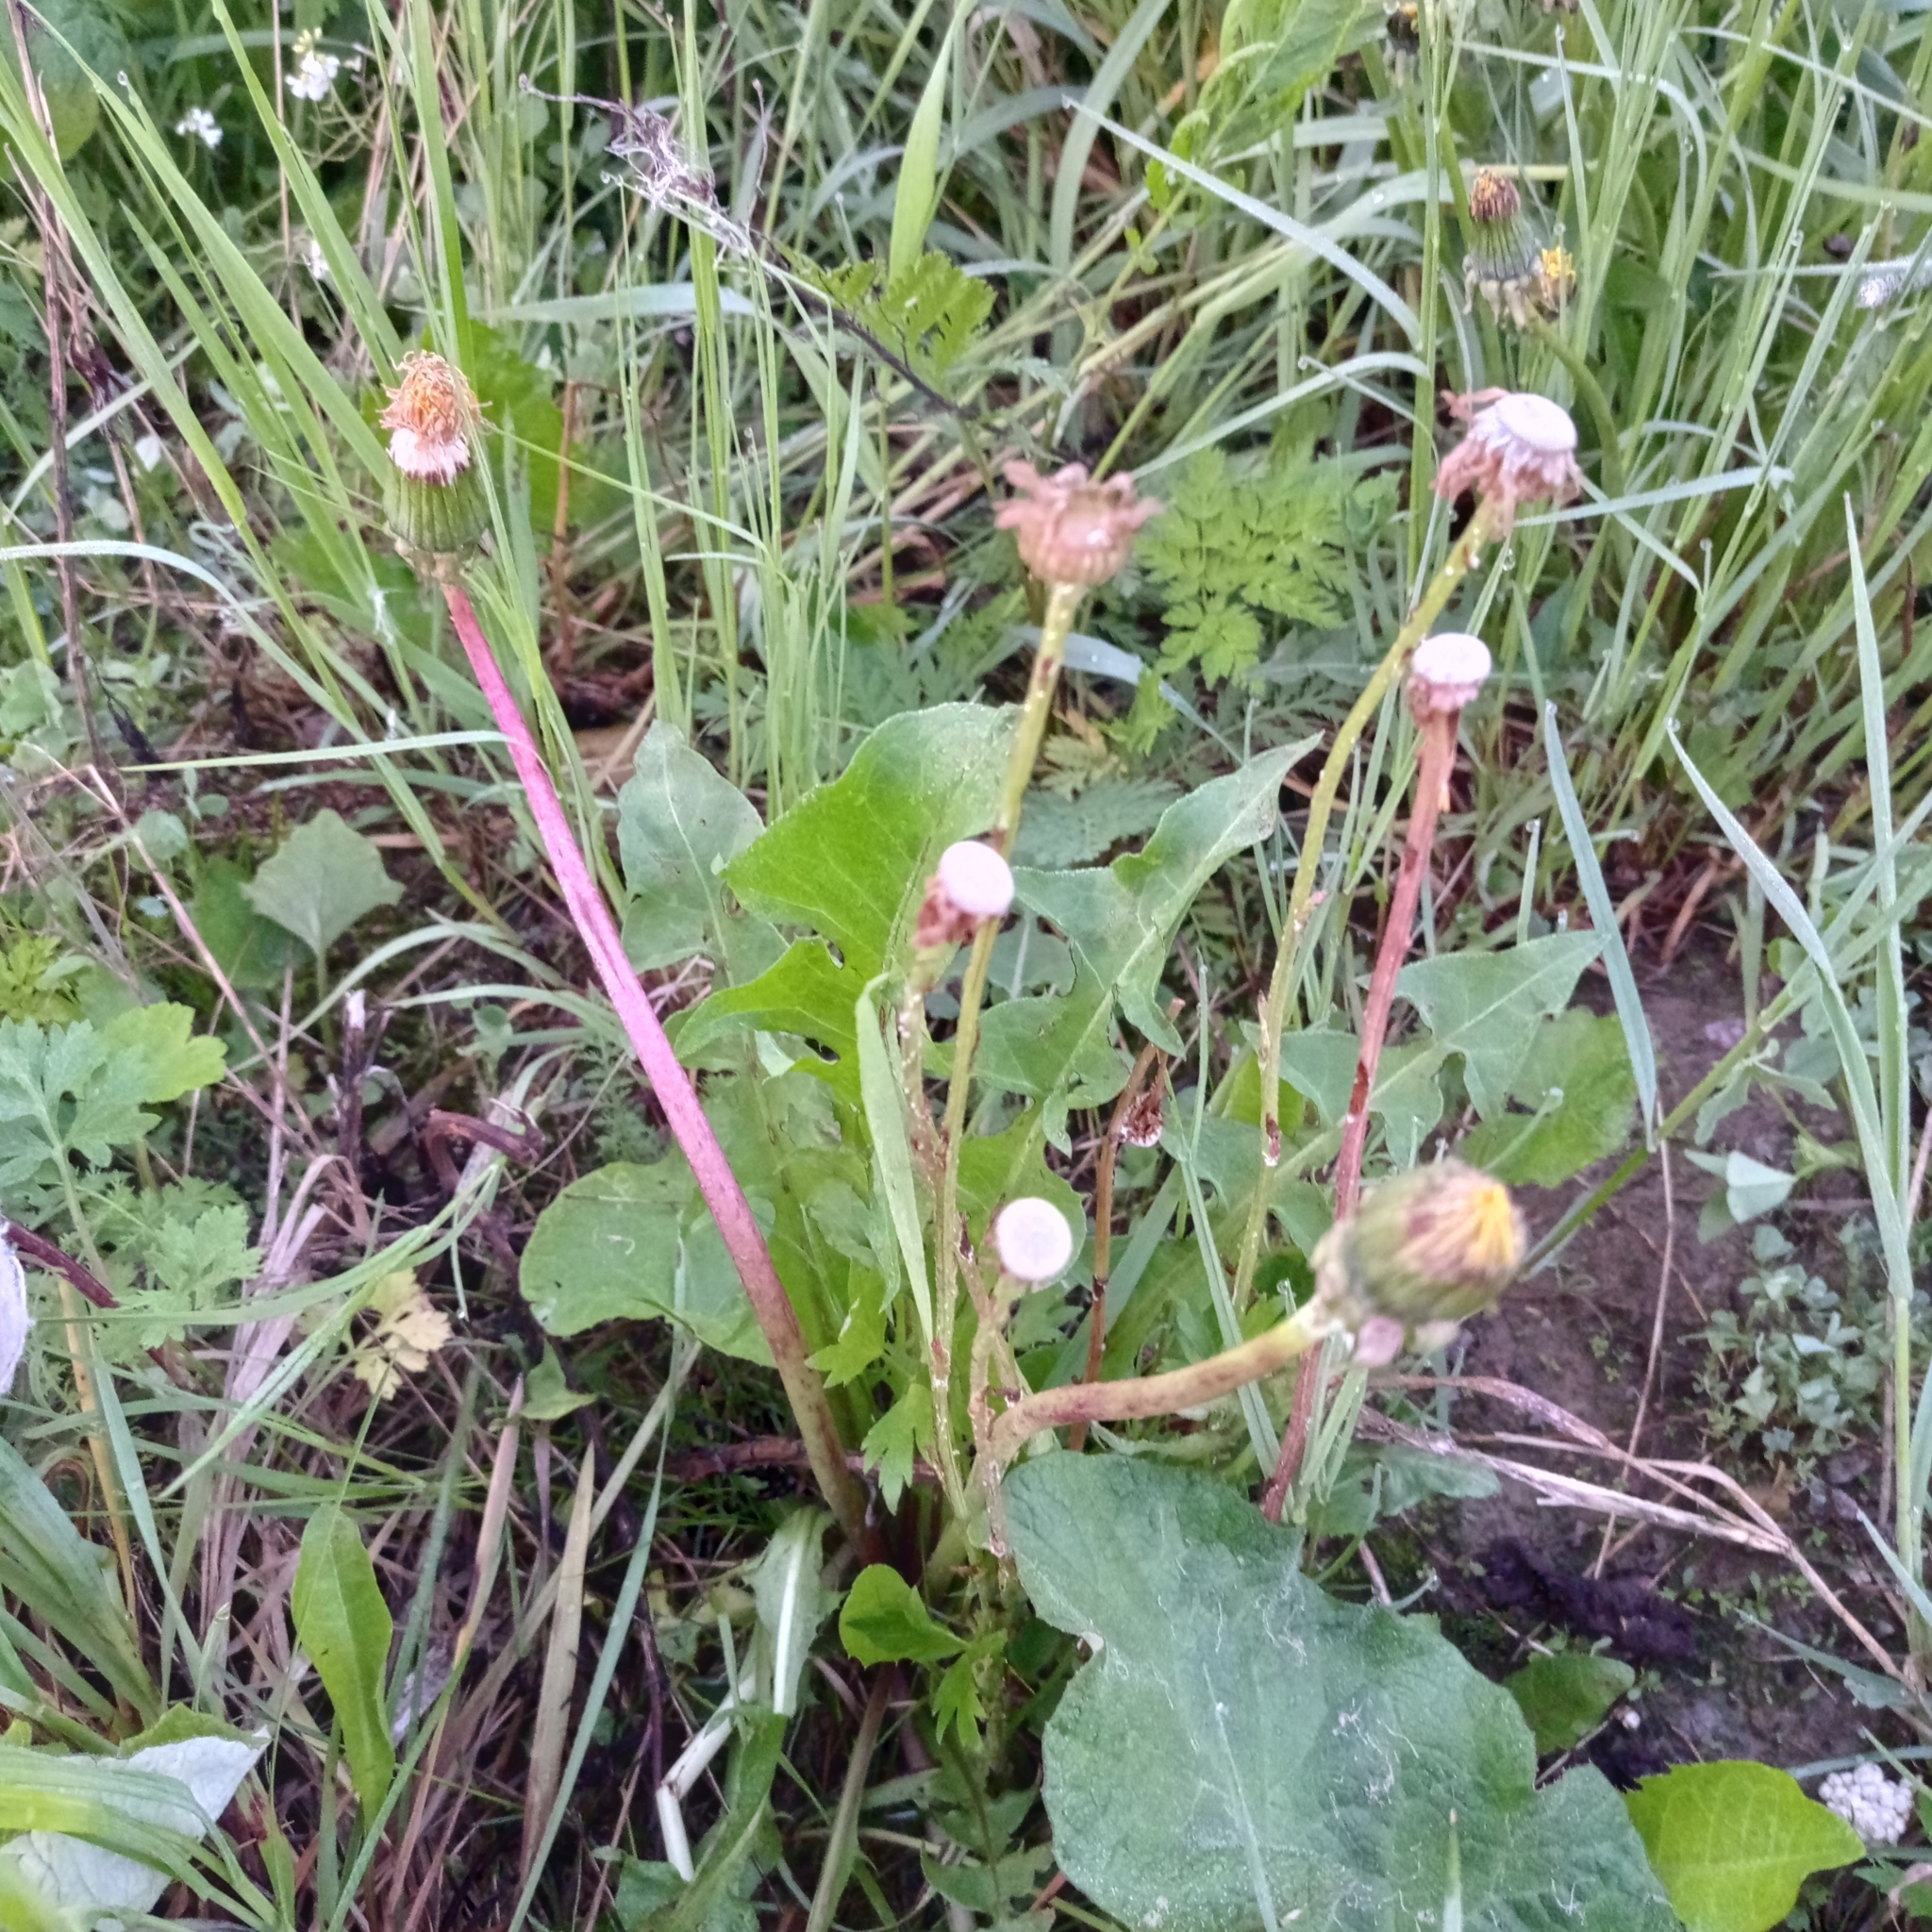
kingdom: Plantae
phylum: Tracheophyta
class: Magnoliopsida
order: Asterales
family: Asteraceae
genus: Taraxacum
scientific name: Taraxacum officinale
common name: Common dandelion
